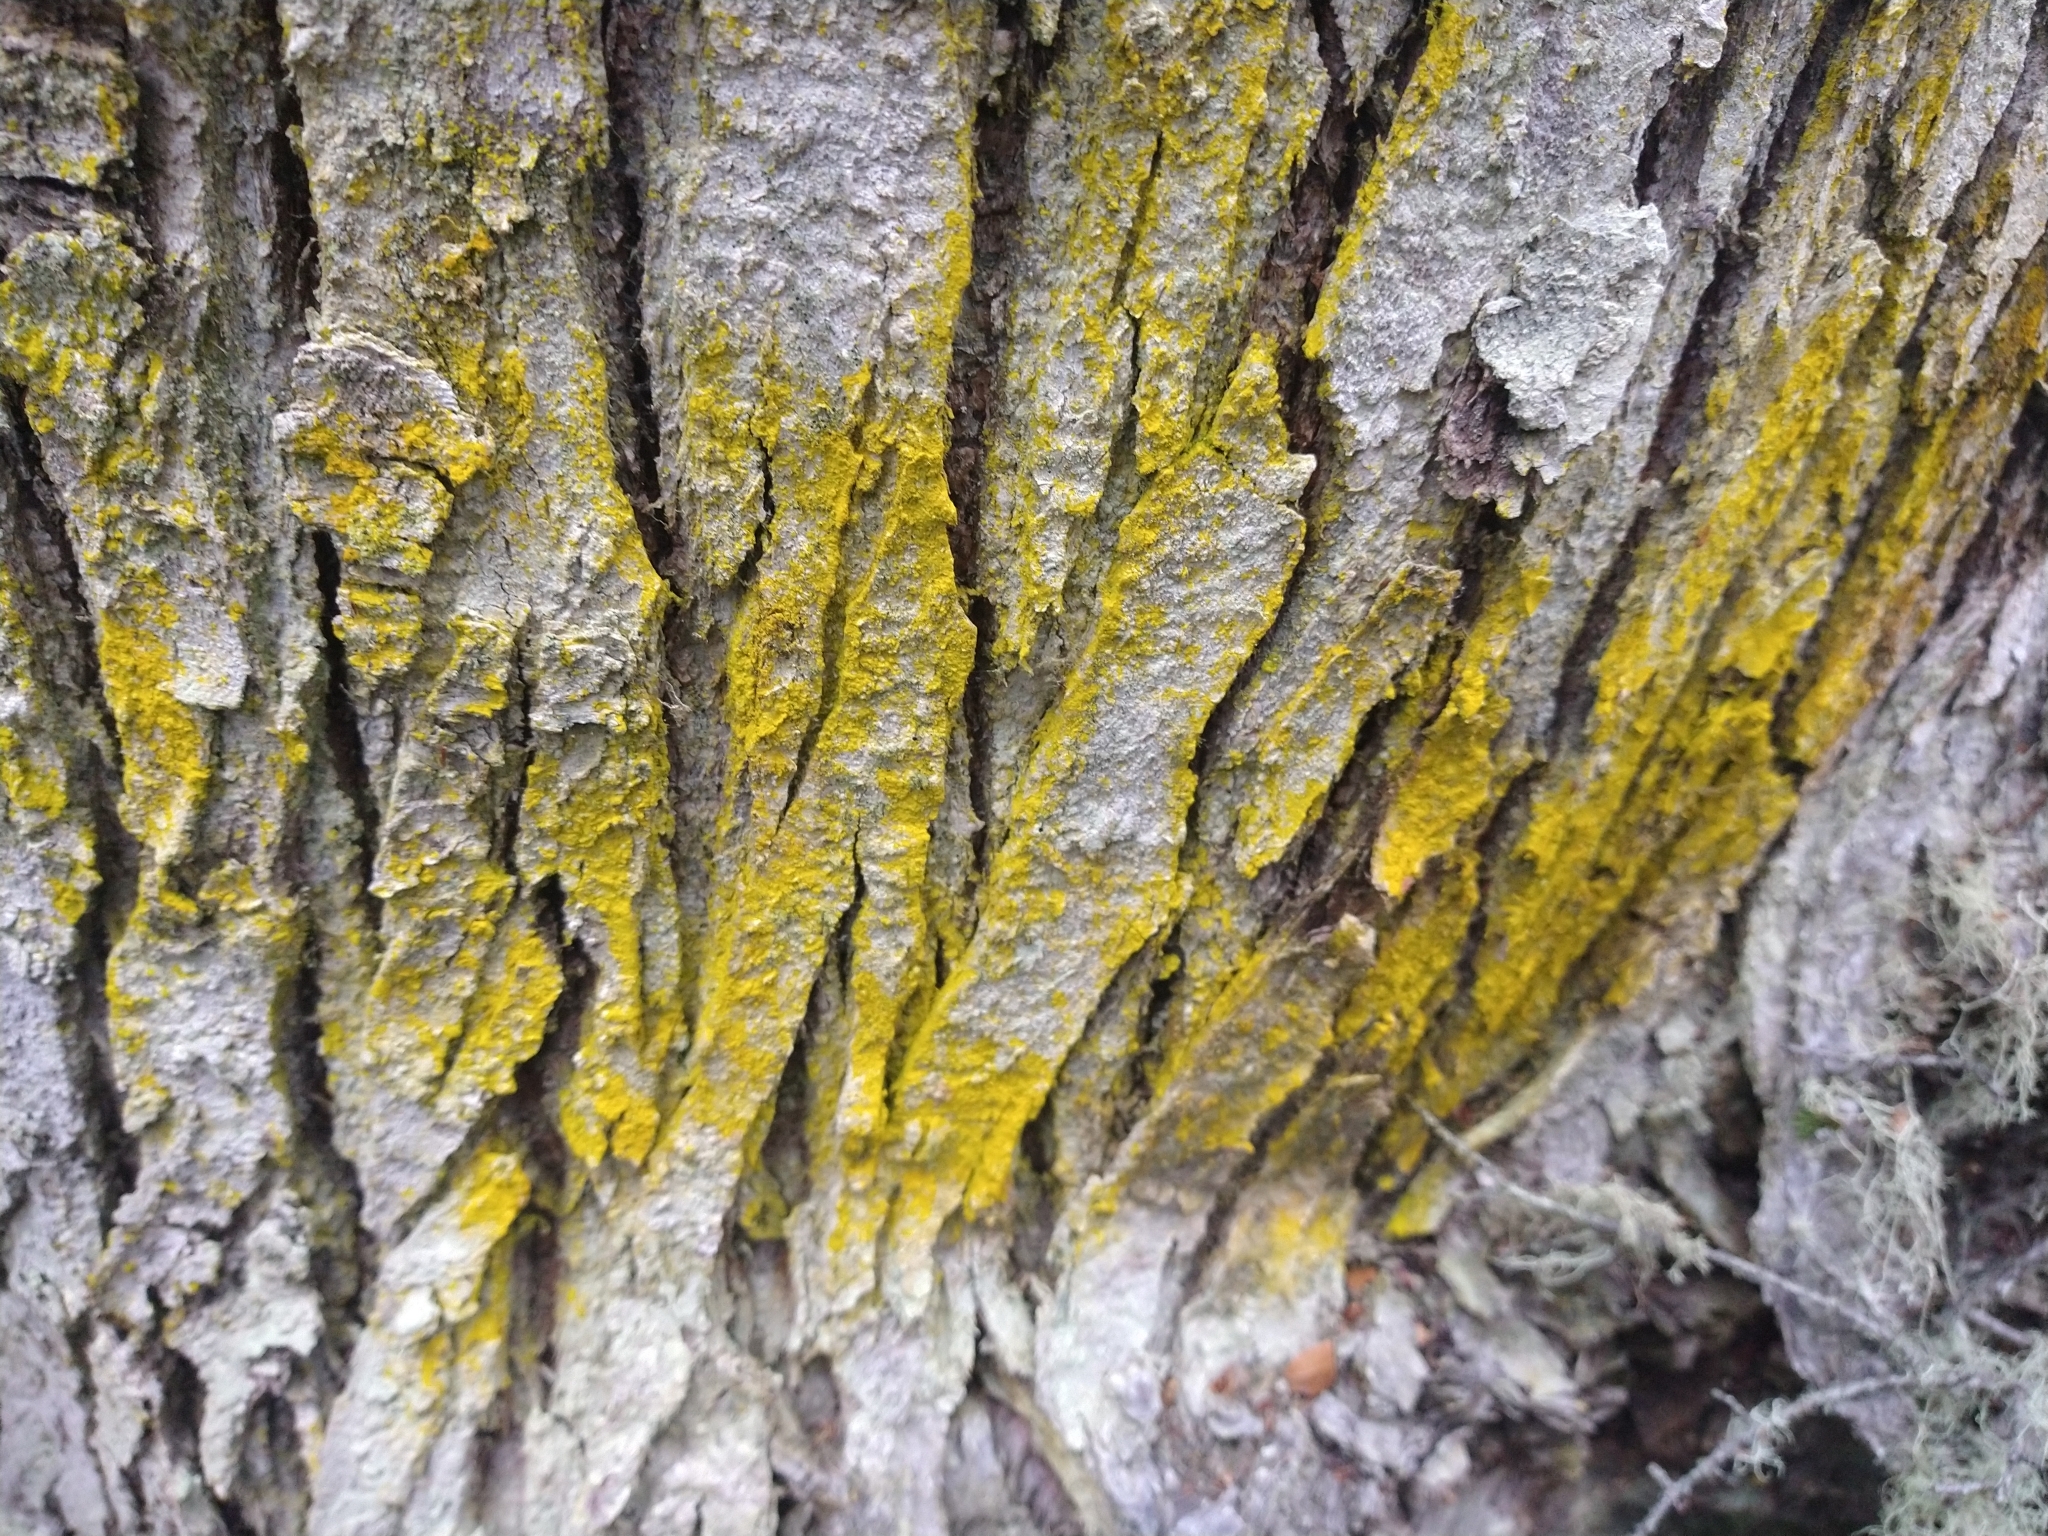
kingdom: Fungi
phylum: Ascomycota
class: Arthoniomycetes
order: Arthoniales
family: Chrysotrichaceae
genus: Chrysothrix
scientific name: Chrysothrix candelaris
